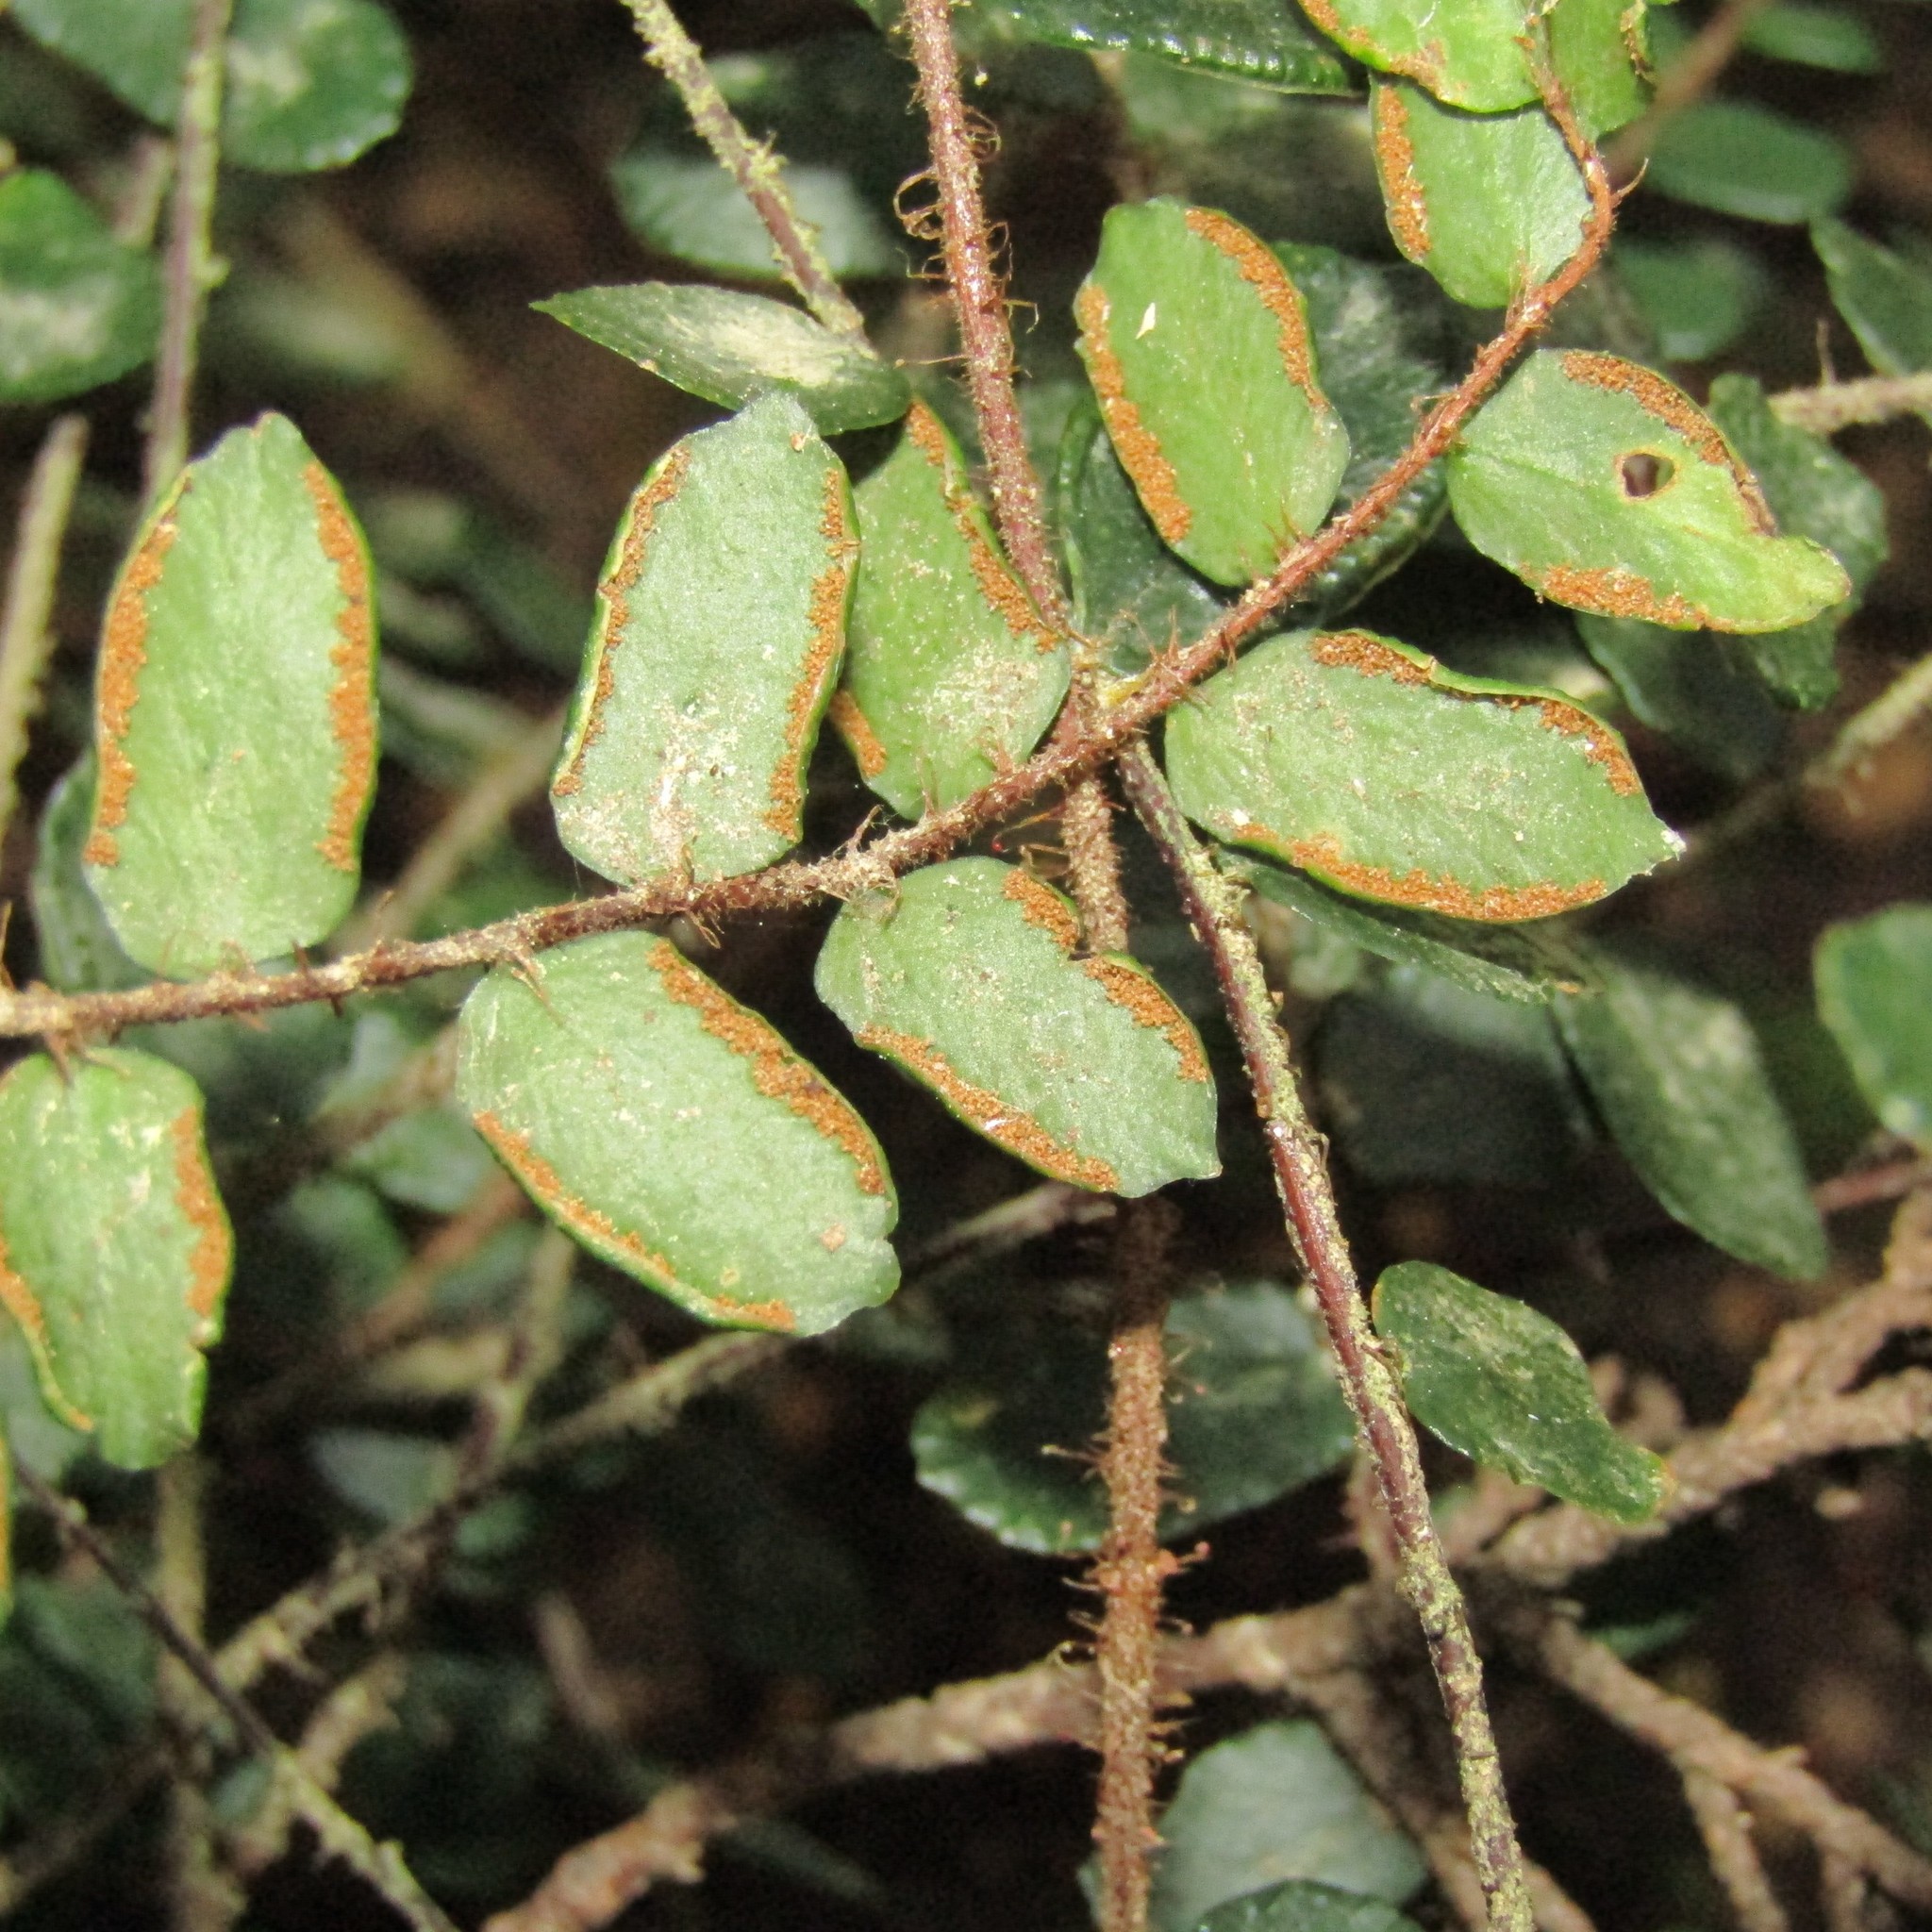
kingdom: Plantae
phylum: Tracheophyta
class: Polypodiopsida
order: Polypodiales
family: Pteridaceae
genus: Pellaea
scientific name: Pellaea rotundifolia
